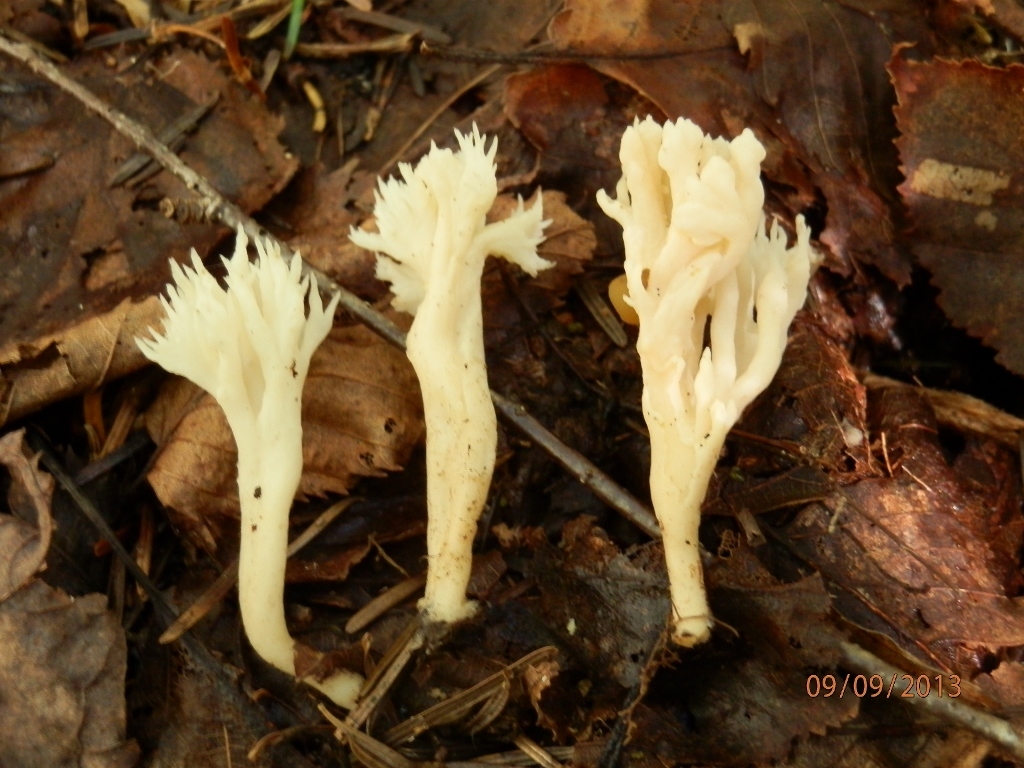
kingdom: Fungi
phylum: Basidiomycota
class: Agaricomycetes
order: Cantharellales
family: Hydnaceae
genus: Clavulina
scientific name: Clavulina coralloides
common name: Crested coral
